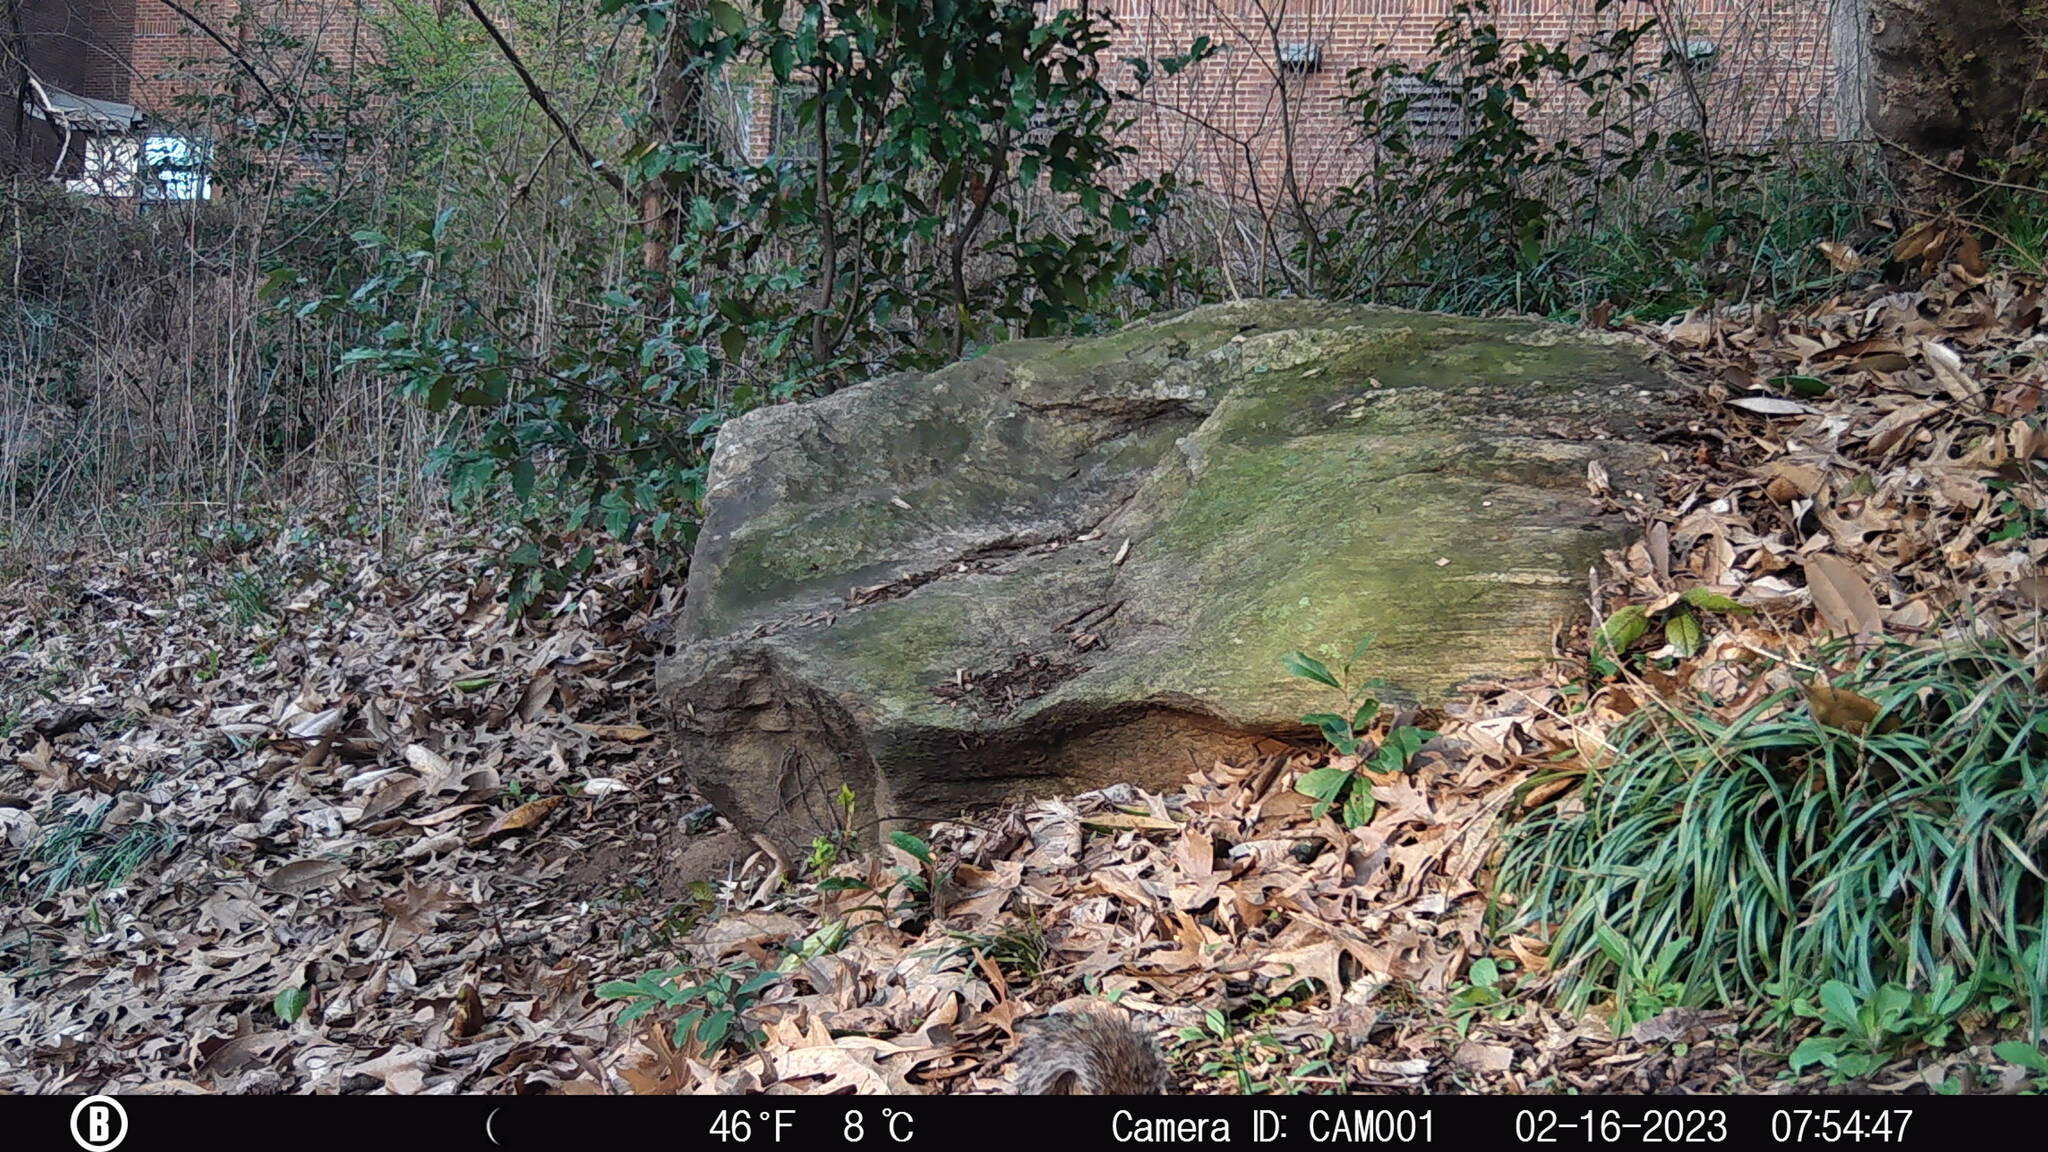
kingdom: Animalia
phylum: Chordata
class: Mammalia
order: Rodentia
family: Sciuridae
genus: Sciurus
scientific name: Sciurus carolinensis
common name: Eastern gray squirrel
